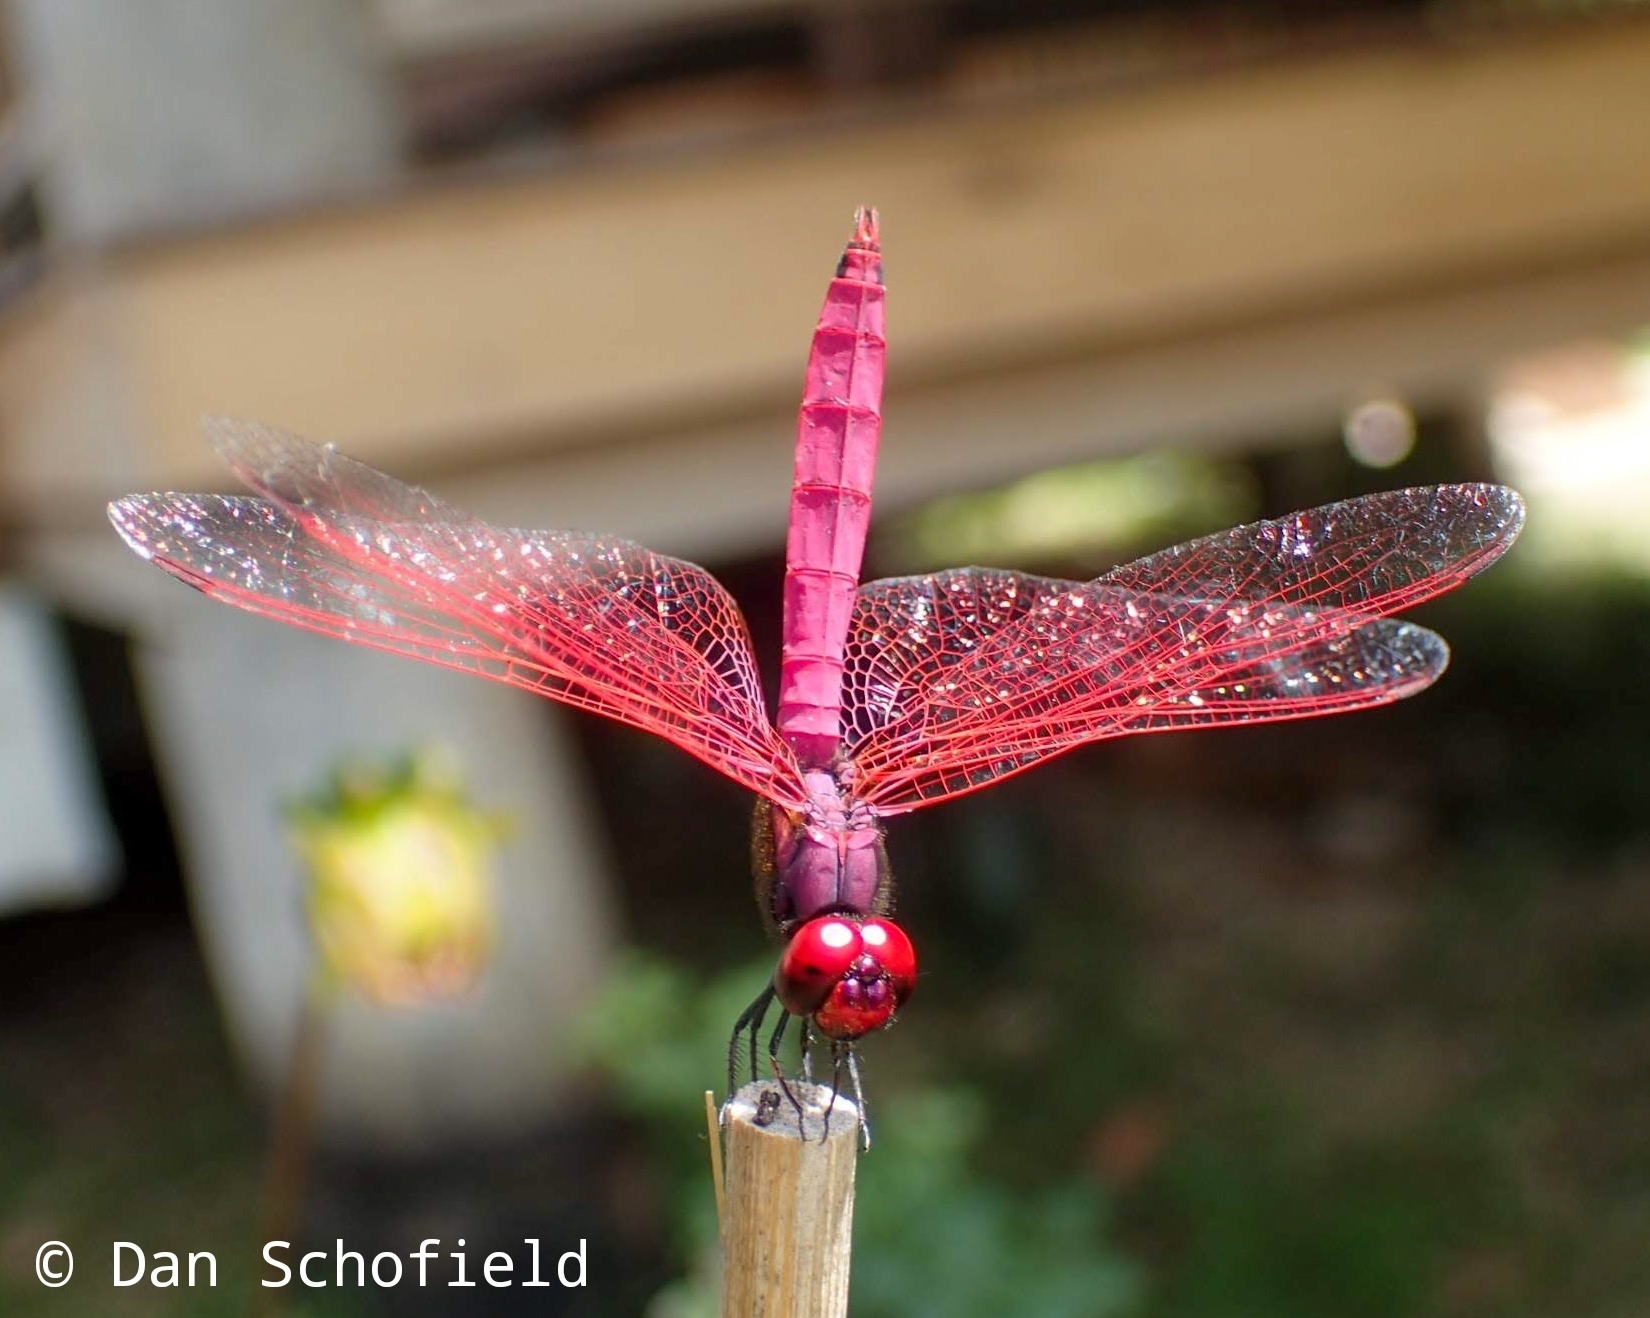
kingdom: Animalia
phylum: Arthropoda
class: Insecta
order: Odonata
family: Libellulidae
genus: Trithemis
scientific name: Trithemis aurora
